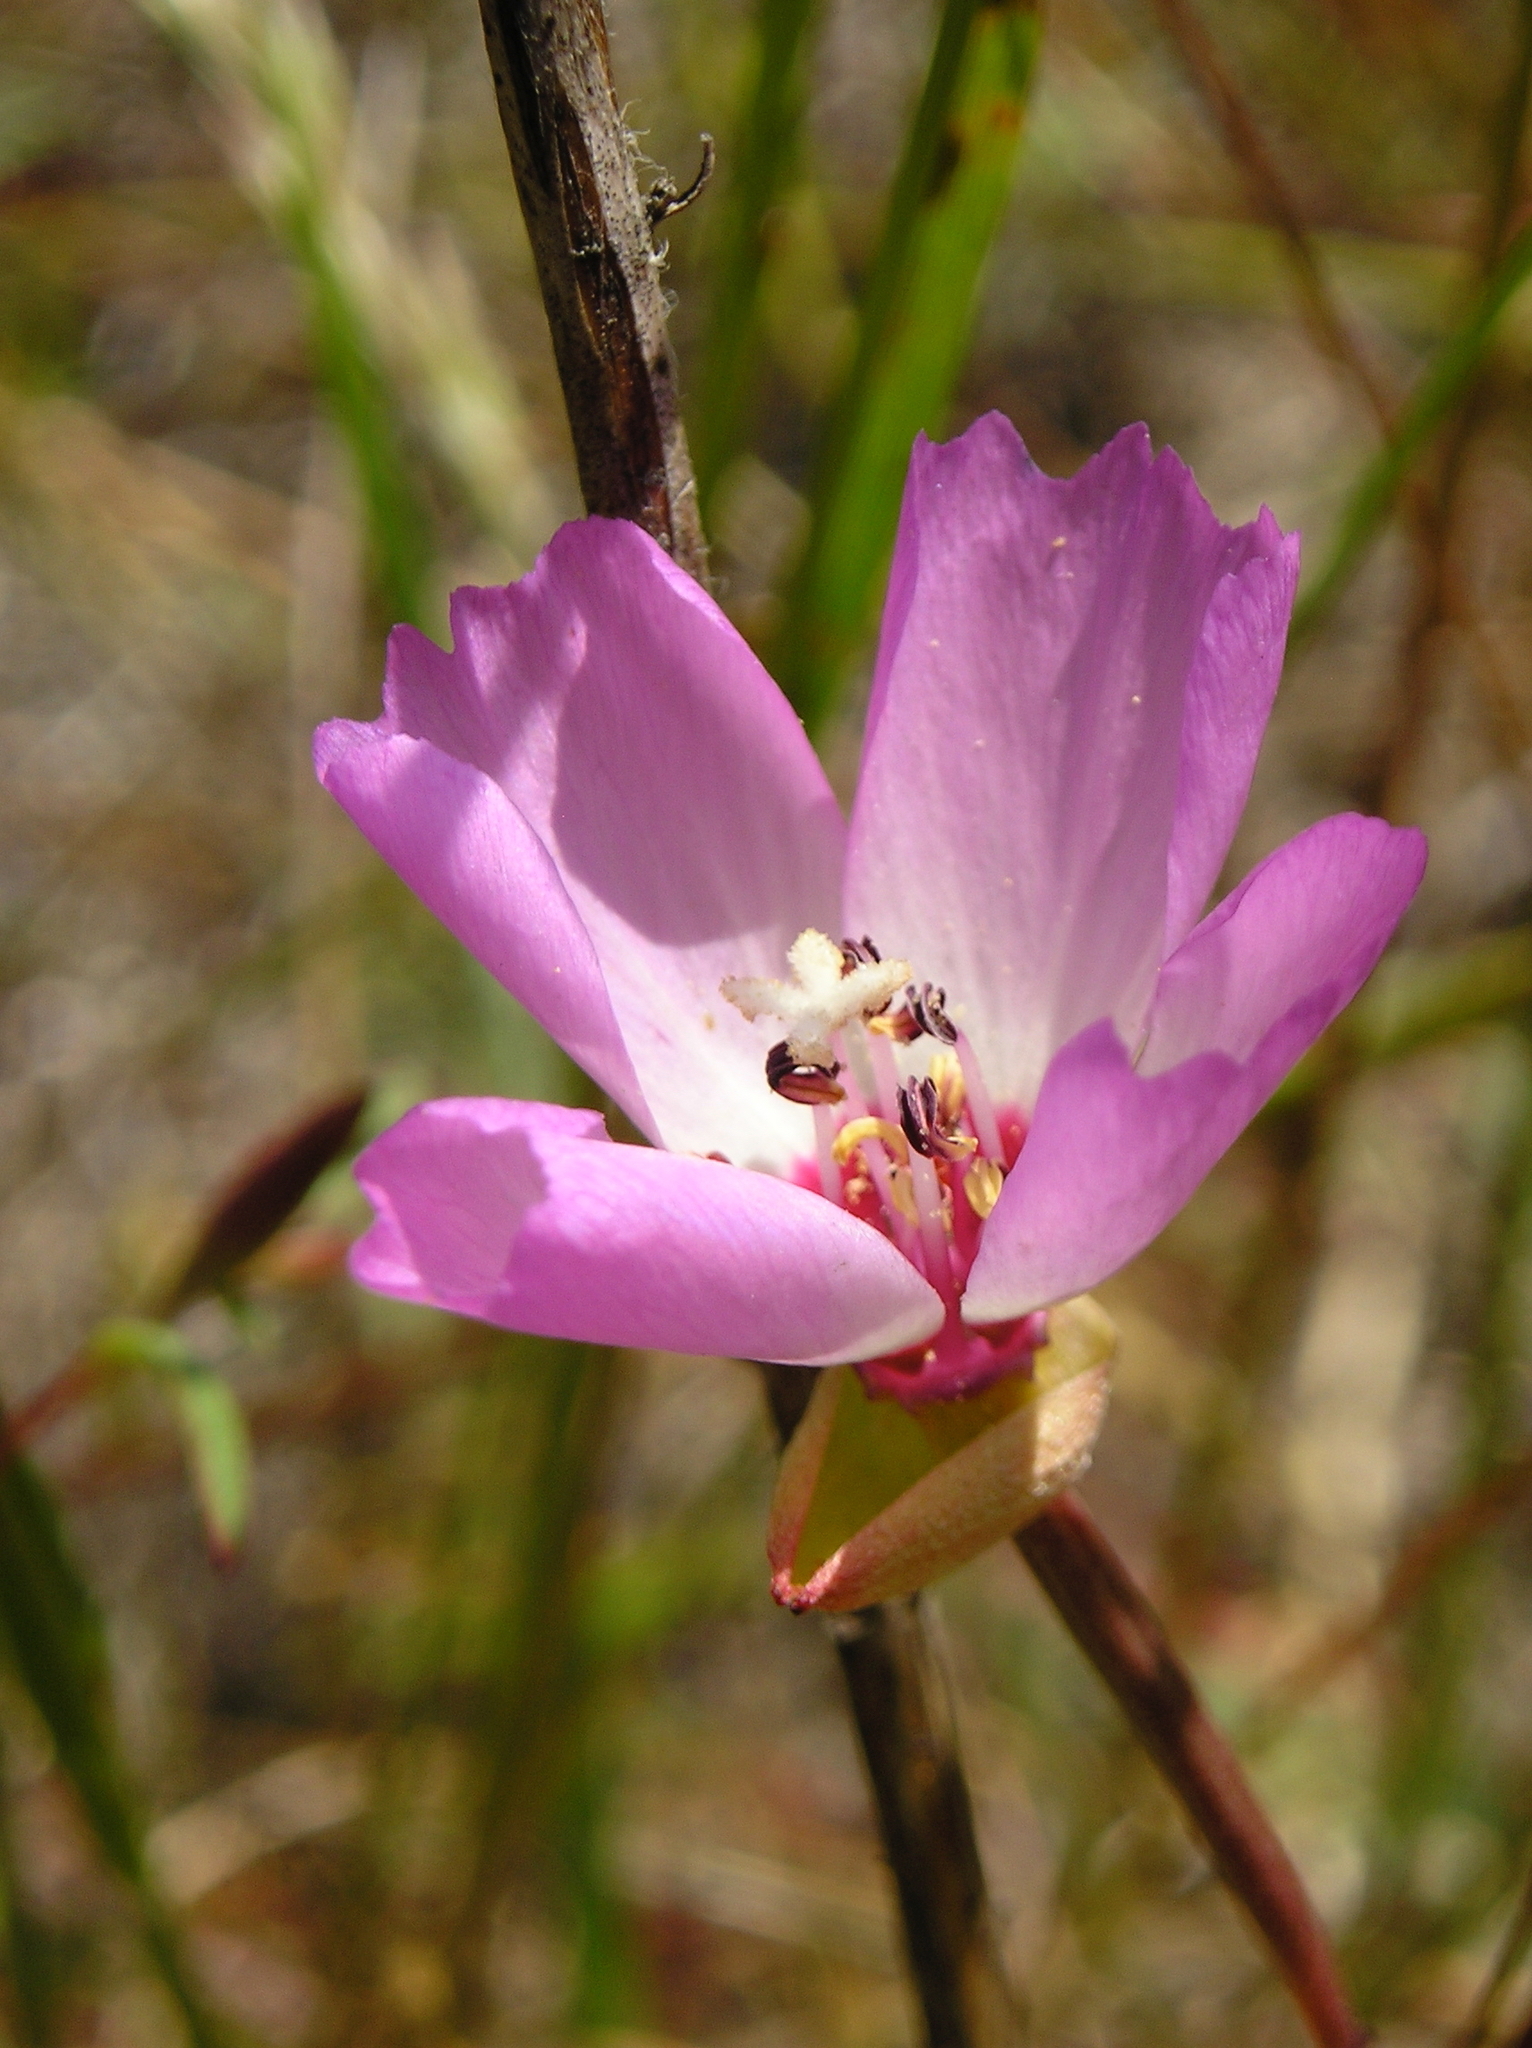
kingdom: Plantae
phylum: Tracheophyta
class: Magnoliopsida
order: Myrtales
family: Onagraceae
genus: Clarkia
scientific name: Clarkia franciscana
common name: Presidio clarkia
